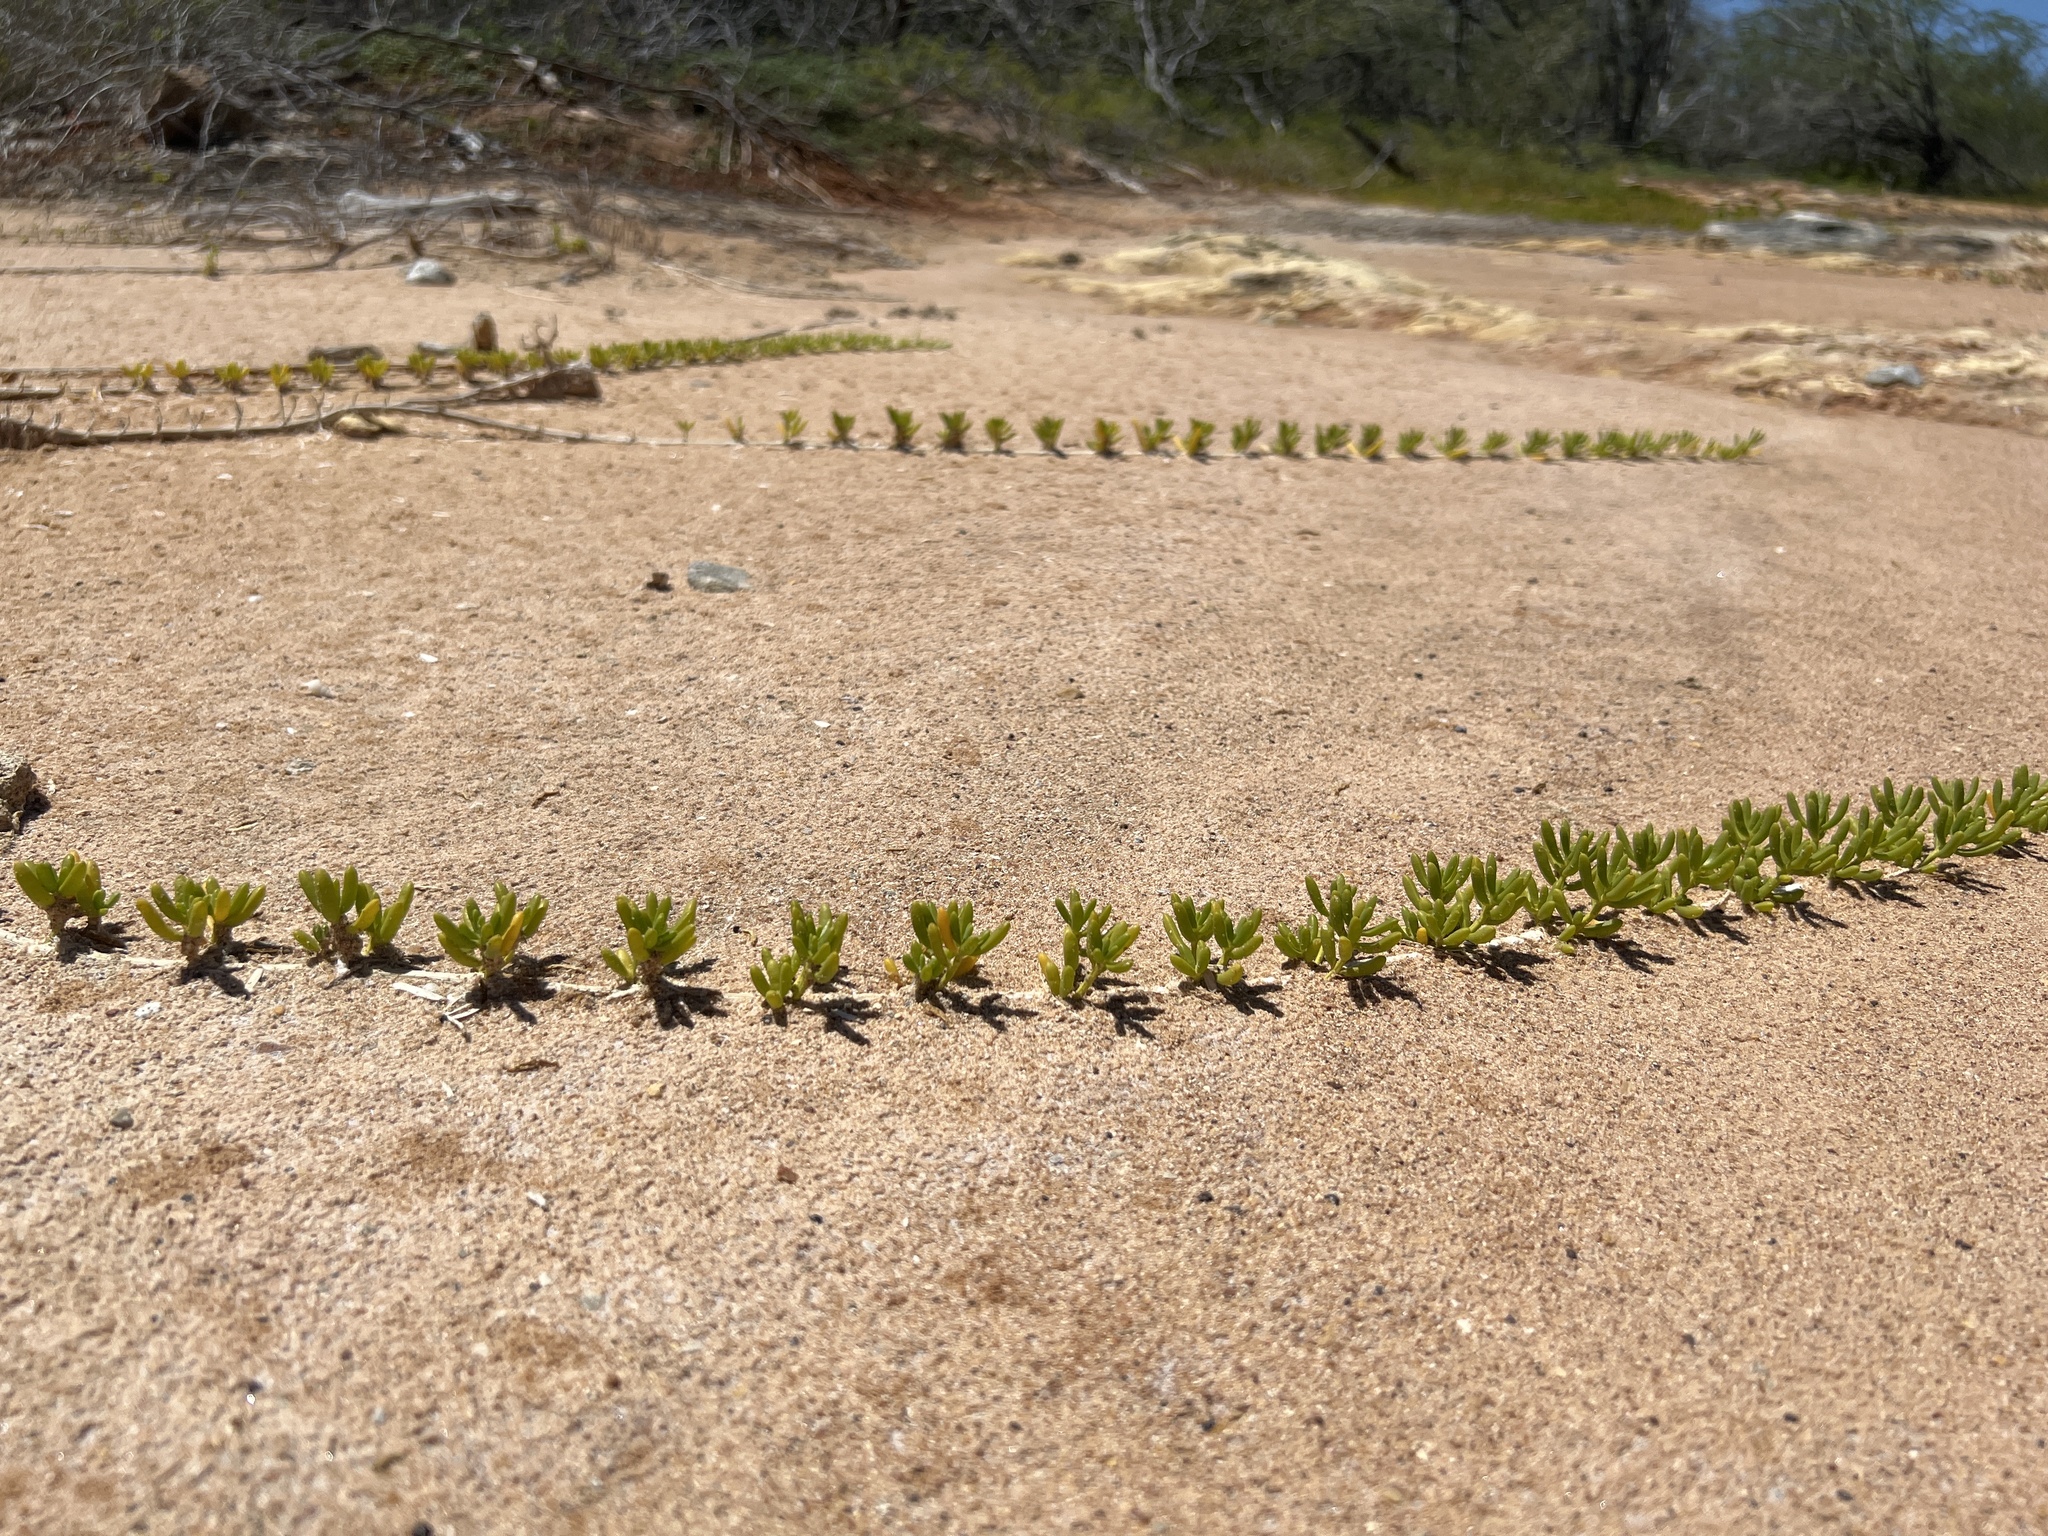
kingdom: Plantae
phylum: Tracheophyta
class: Magnoliopsida
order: Brassicales
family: Bataceae
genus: Batis
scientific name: Batis maritima
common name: Turtleweed
